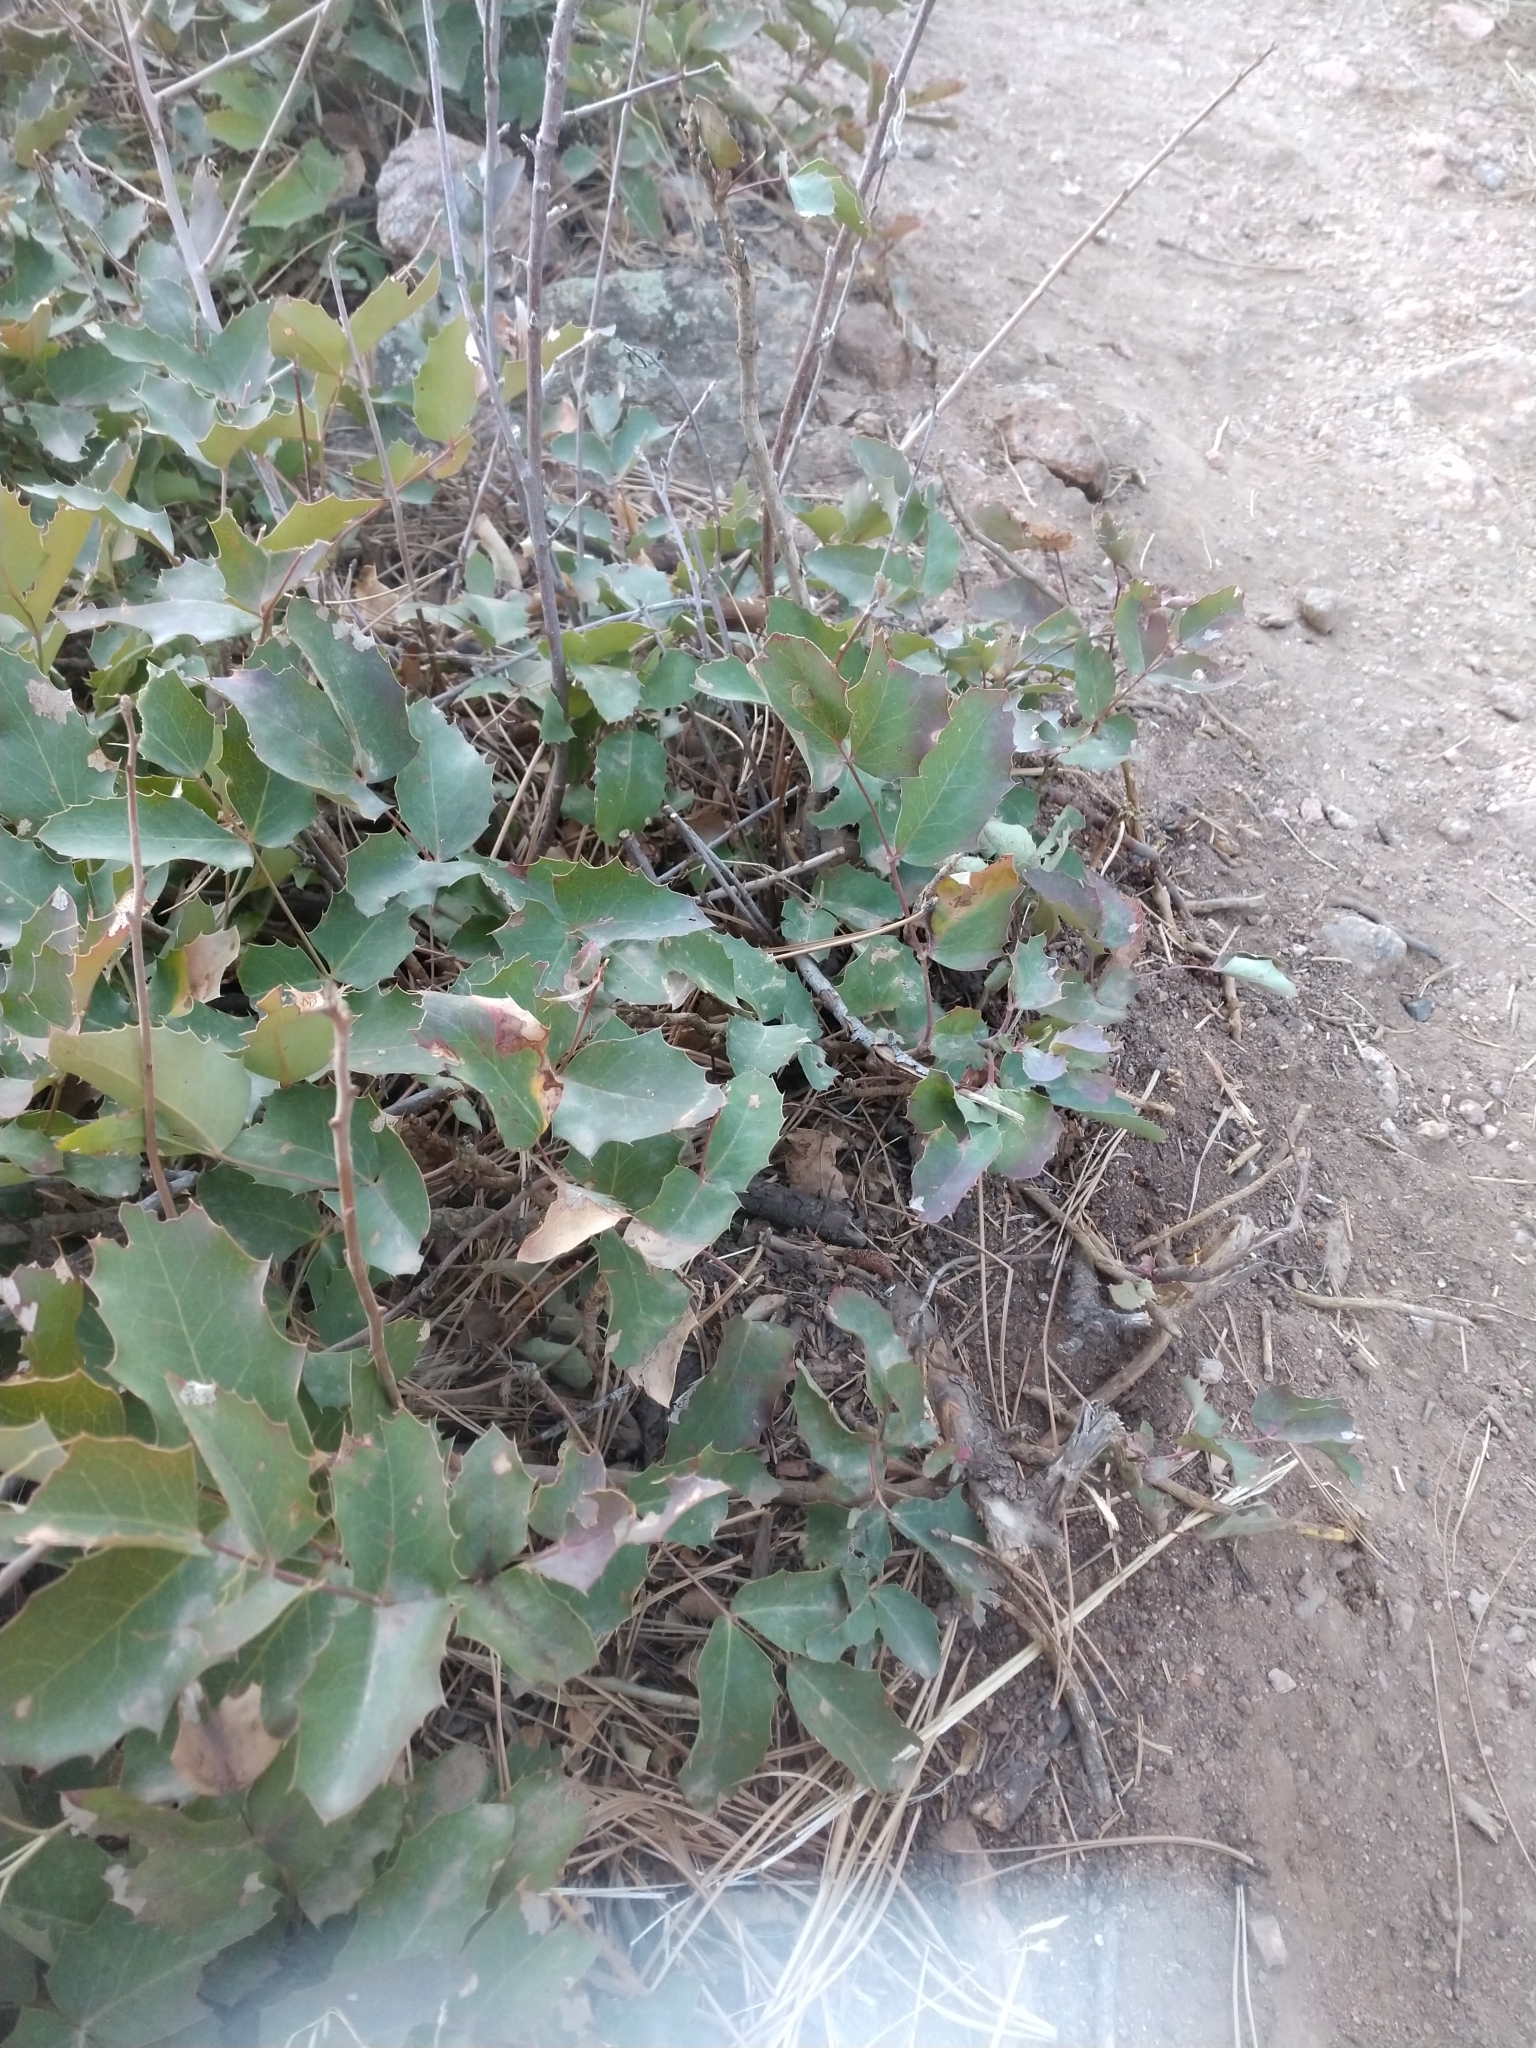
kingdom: Plantae
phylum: Tracheophyta
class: Magnoliopsida
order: Ranunculales
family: Berberidaceae
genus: Mahonia
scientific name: Mahonia repens
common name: Creeping oregon-grape
